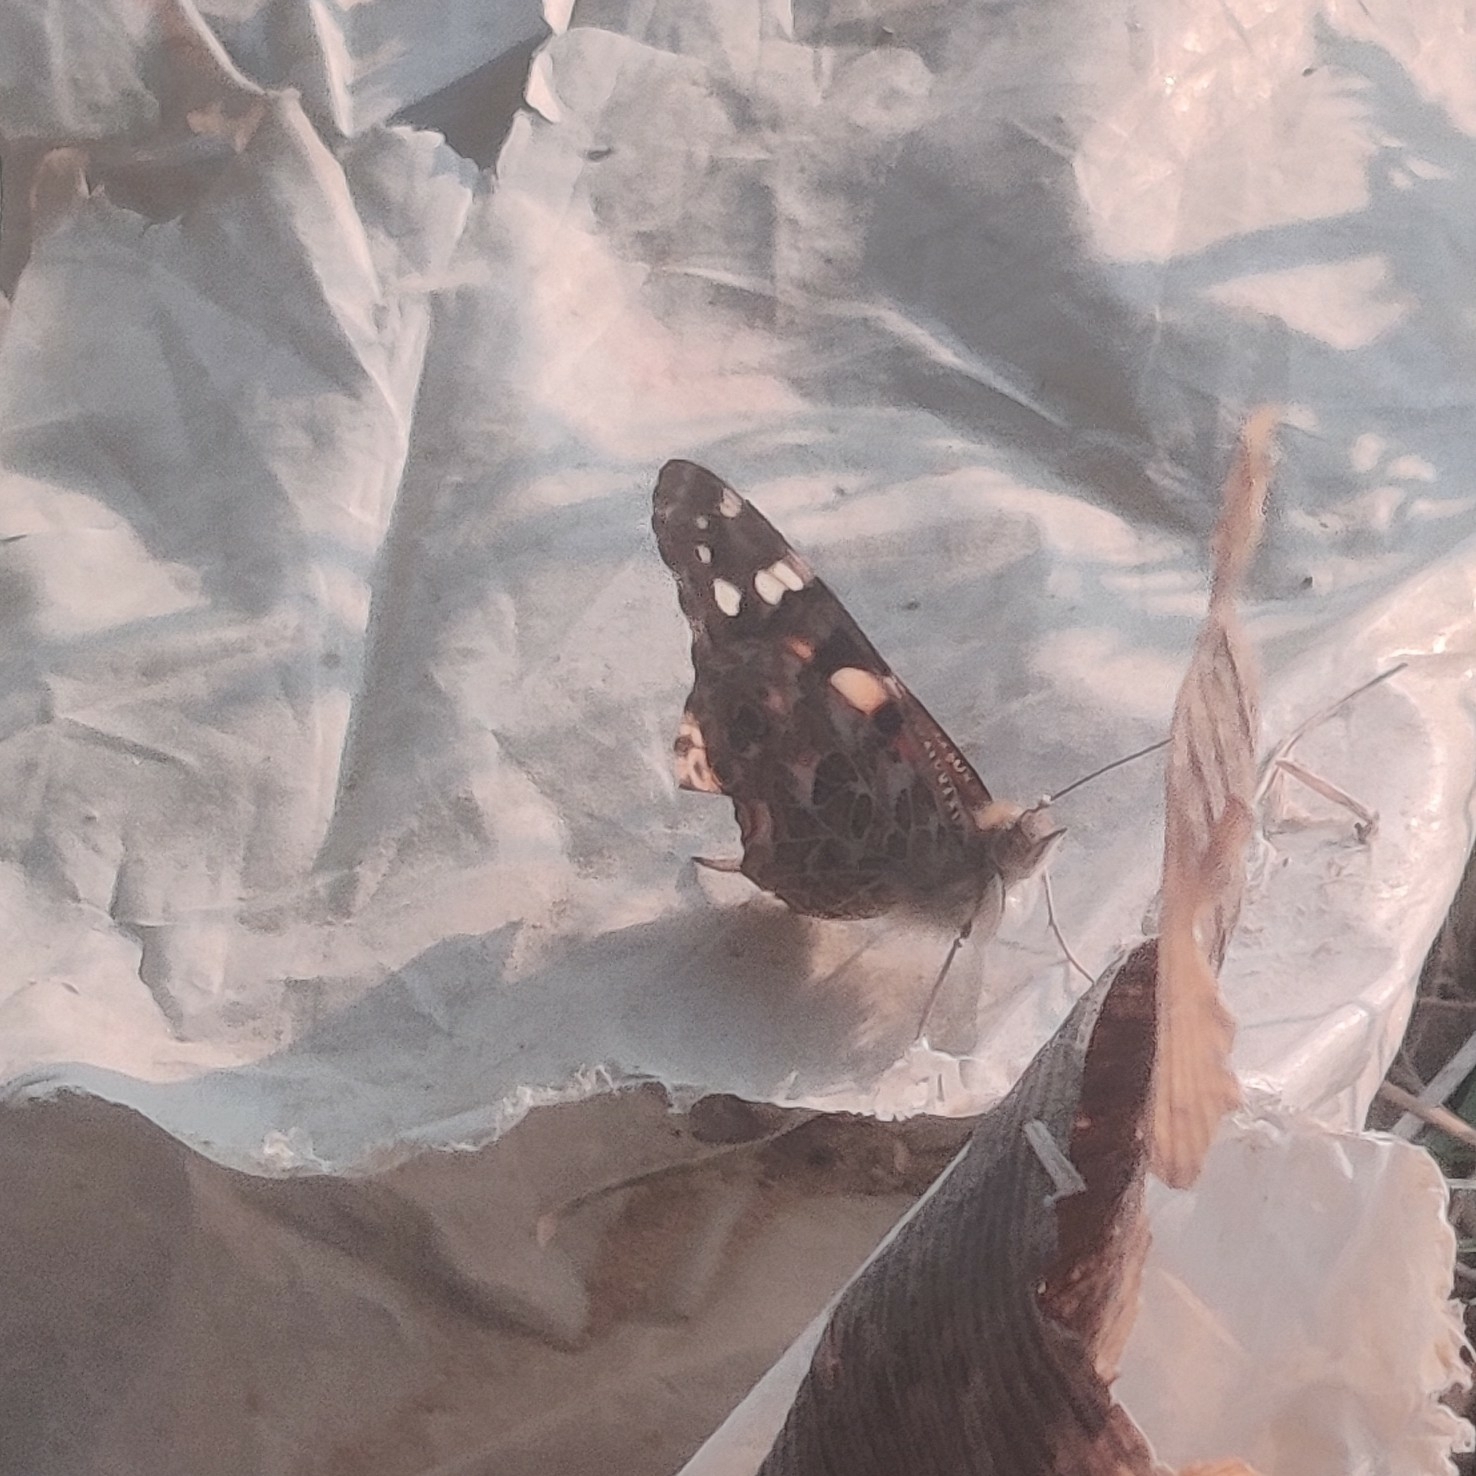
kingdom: Animalia
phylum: Arthropoda
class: Insecta
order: Lepidoptera
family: Nymphalidae
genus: Vanessa
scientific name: Vanessa cardui
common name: Painted lady
